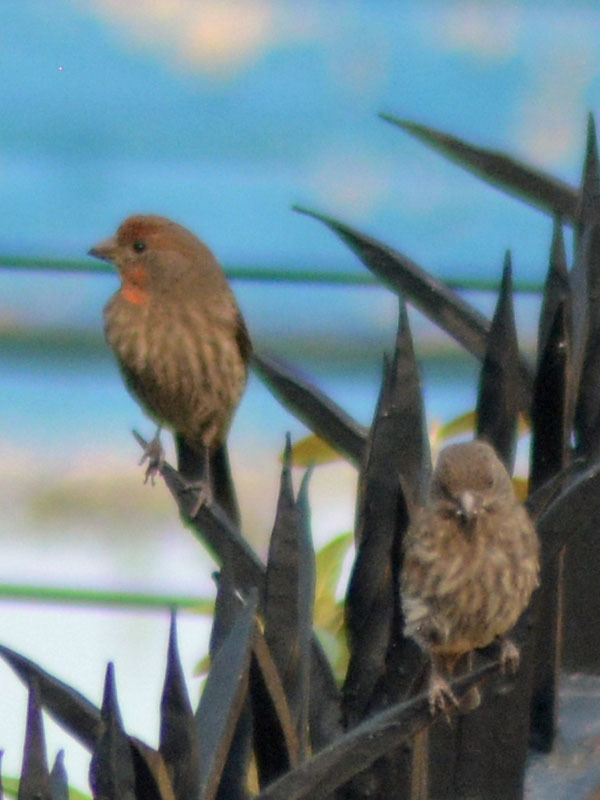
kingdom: Animalia
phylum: Chordata
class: Aves
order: Passeriformes
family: Fringillidae
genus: Haemorhous
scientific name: Haemorhous mexicanus
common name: House finch
